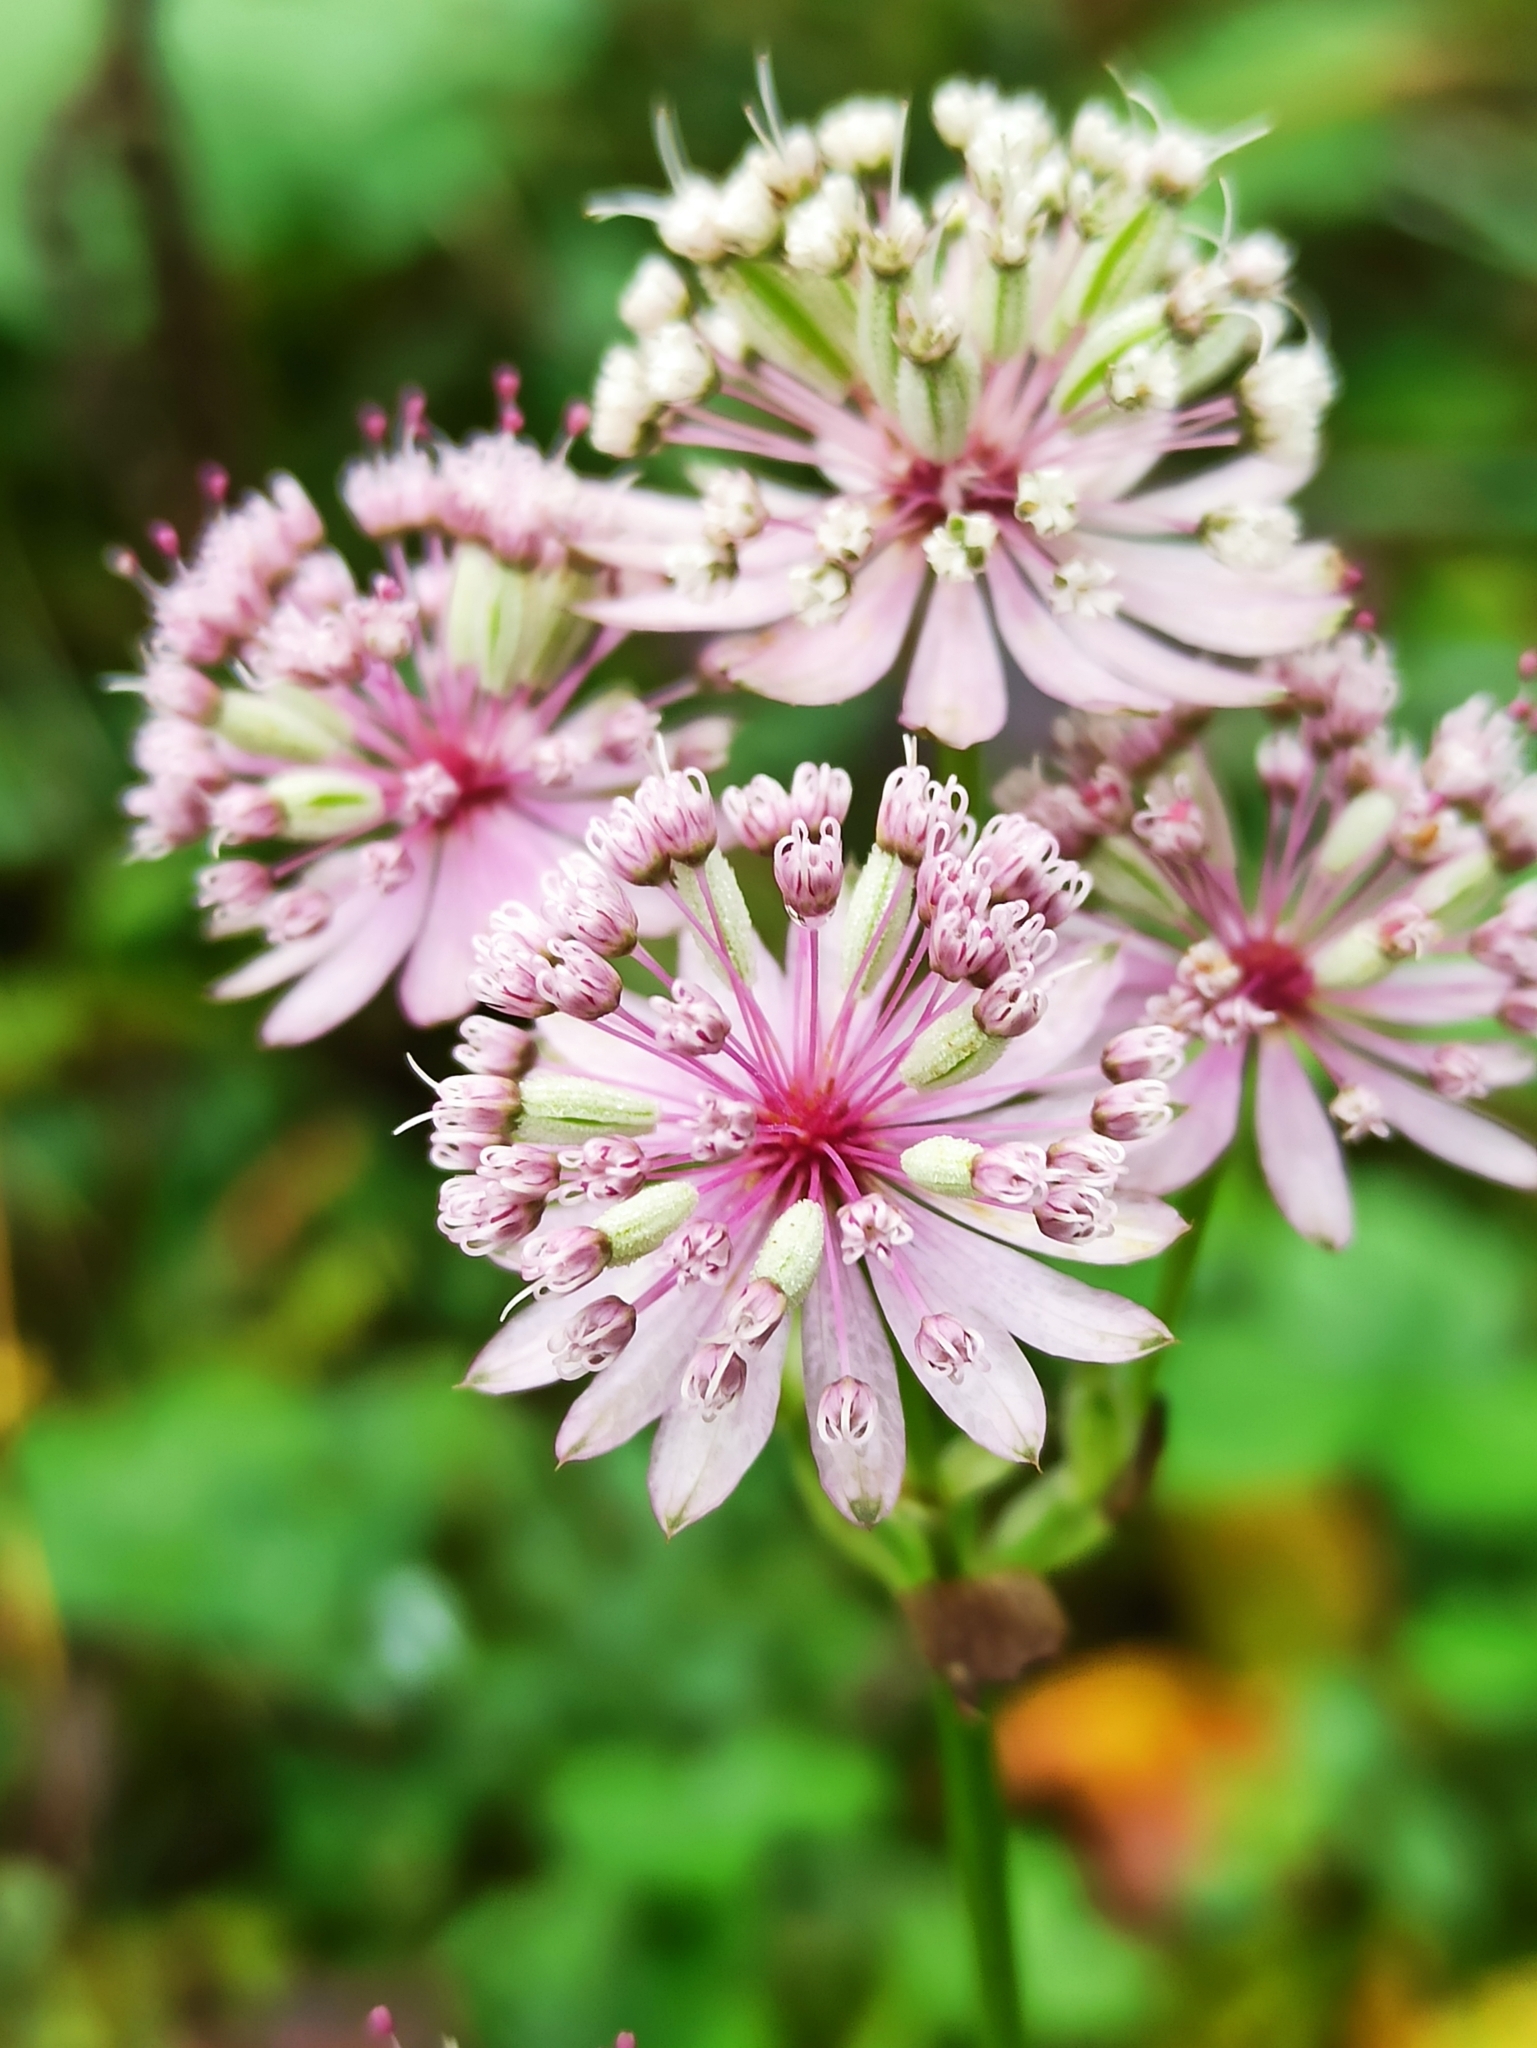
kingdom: Plantae
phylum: Tracheophyta
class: Magnoliopsida
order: Apiales
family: Apiaceae
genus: Astrantia
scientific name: Astrantia major
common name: Greater masterwort
